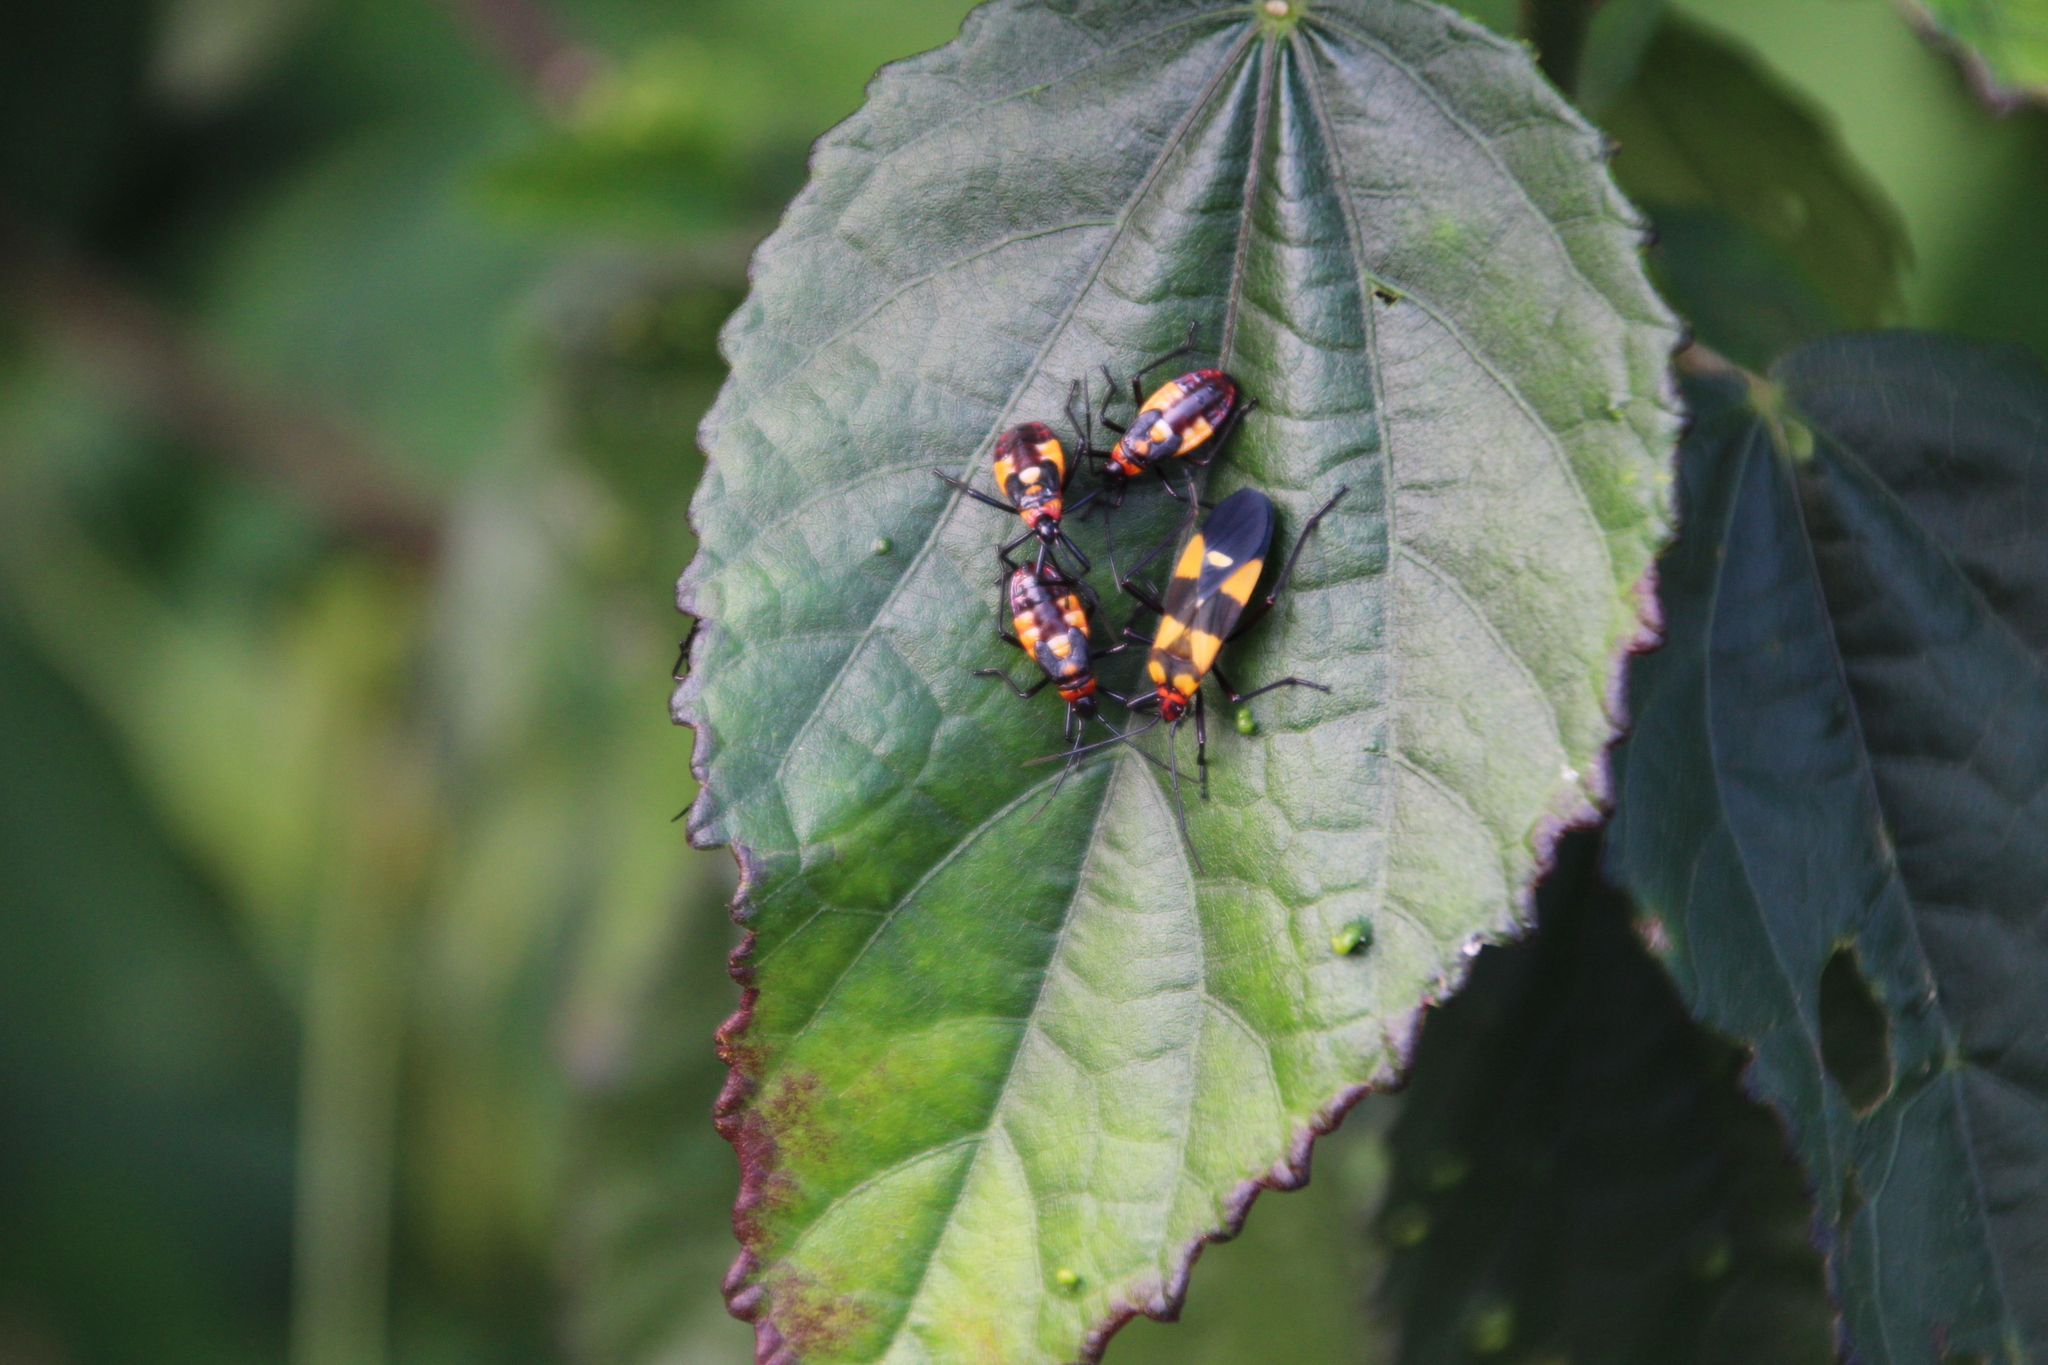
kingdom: Animalia
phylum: Arthropoda
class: Insecta
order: Hemiptera
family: Lygaeidae
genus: Oncopeltus
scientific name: Oncopeltus famelicus
